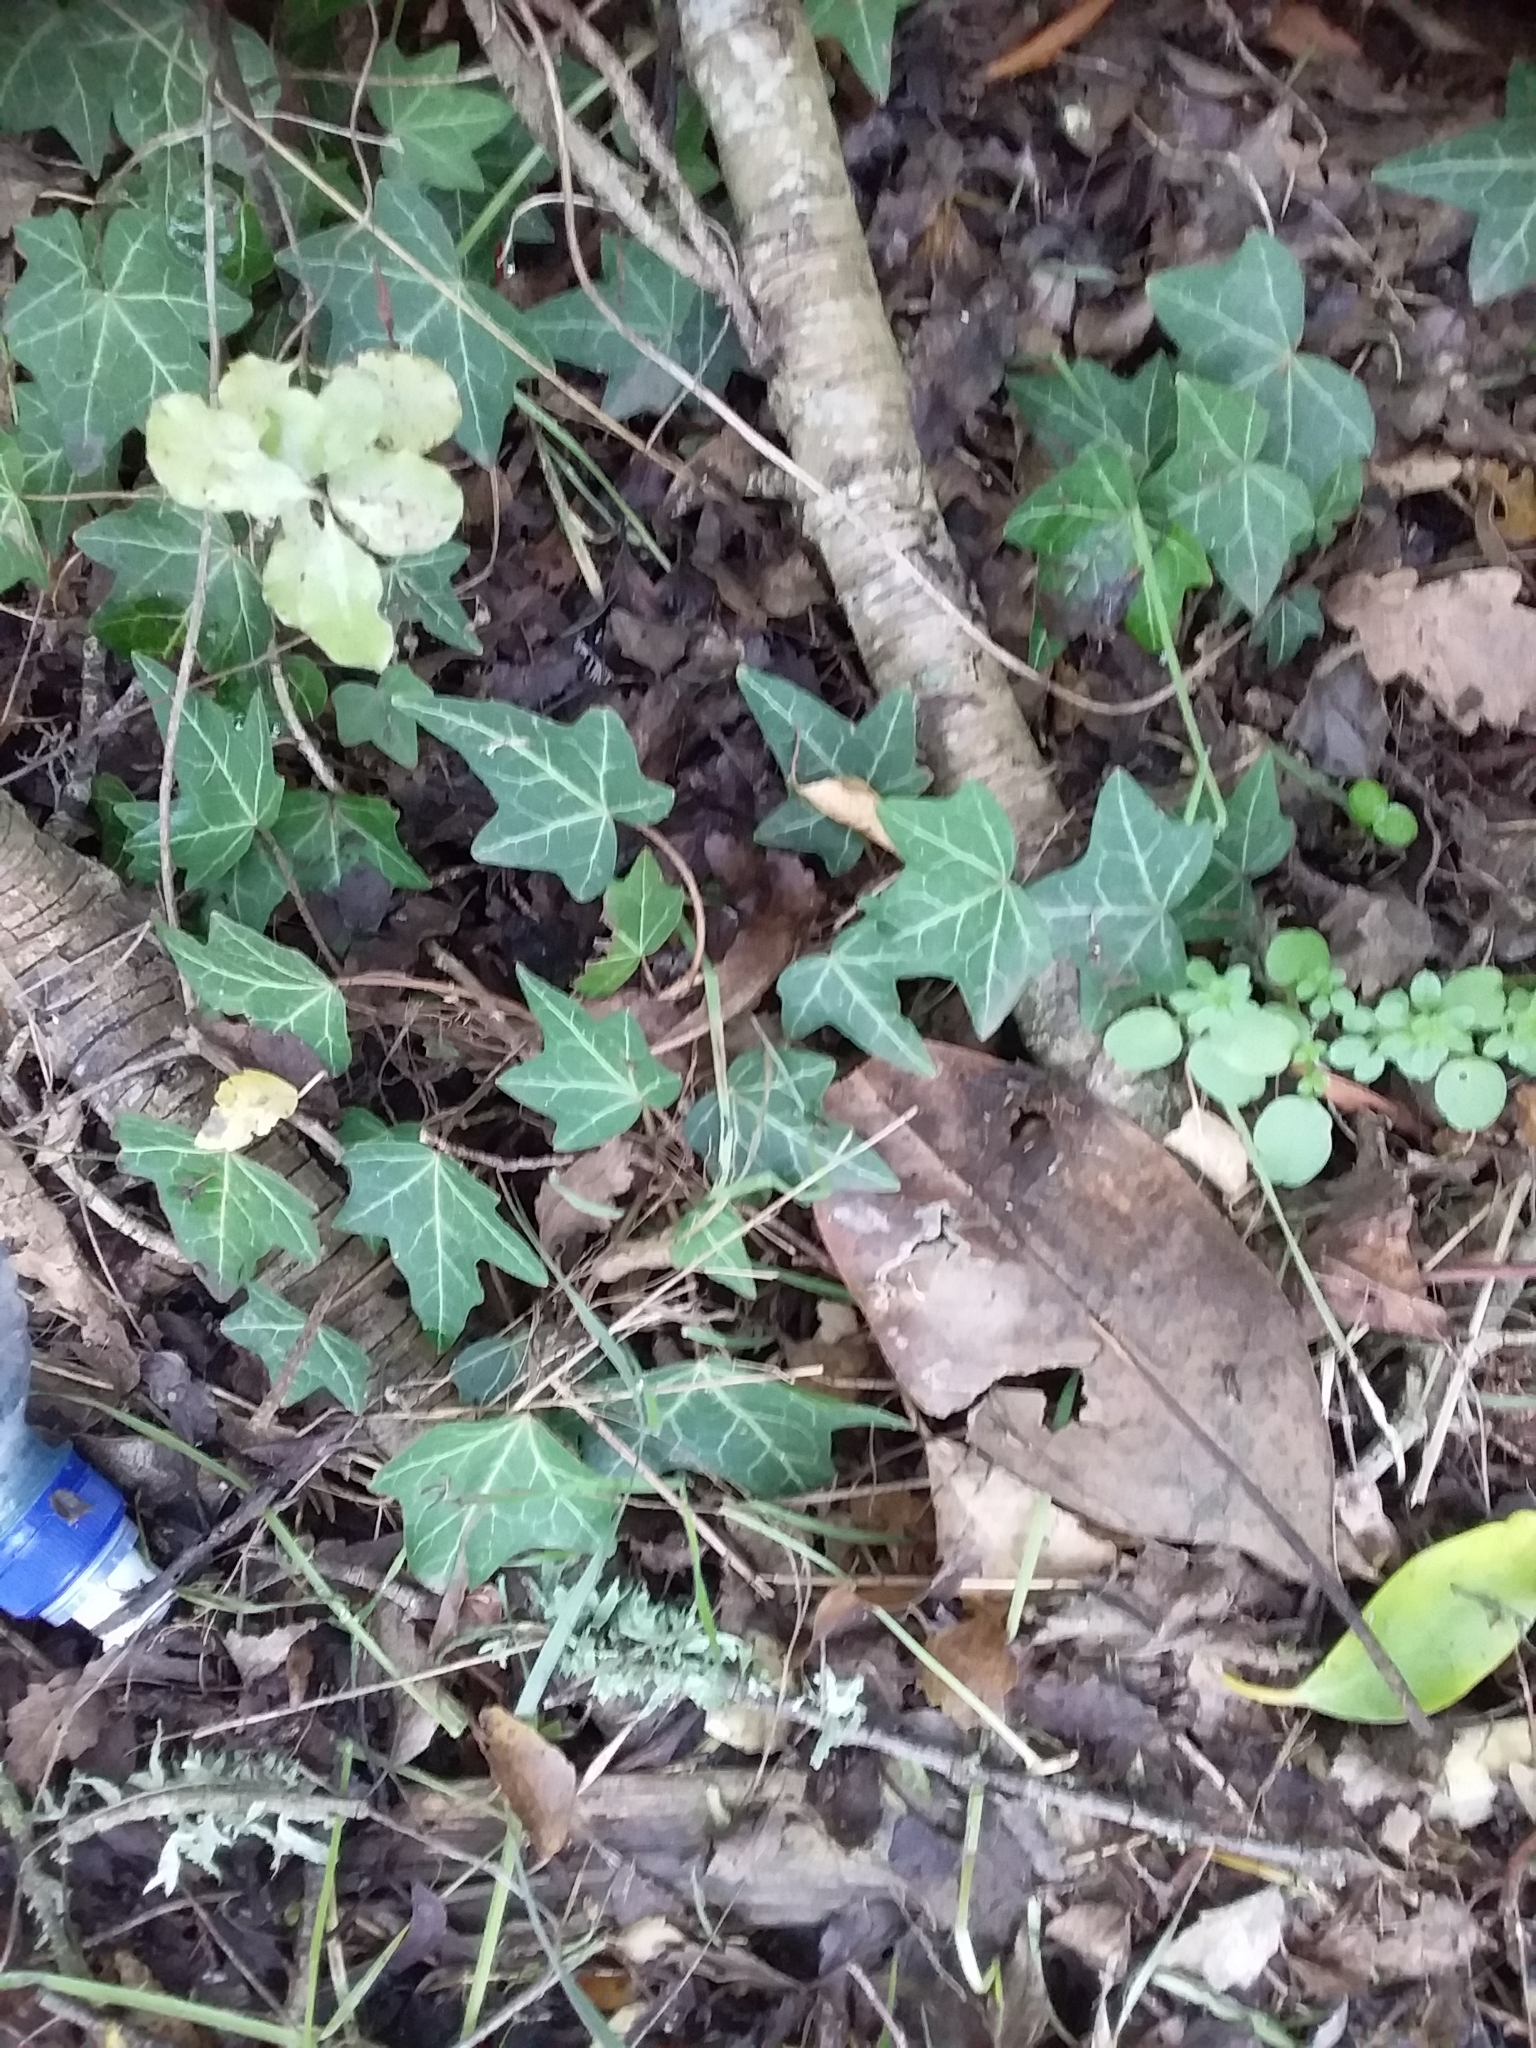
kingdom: Plantae
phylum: Tracheophyta
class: Magnoliopsida
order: Apiales
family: Araliaceae
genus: Hedera
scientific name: Hedera helix
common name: Ivy
